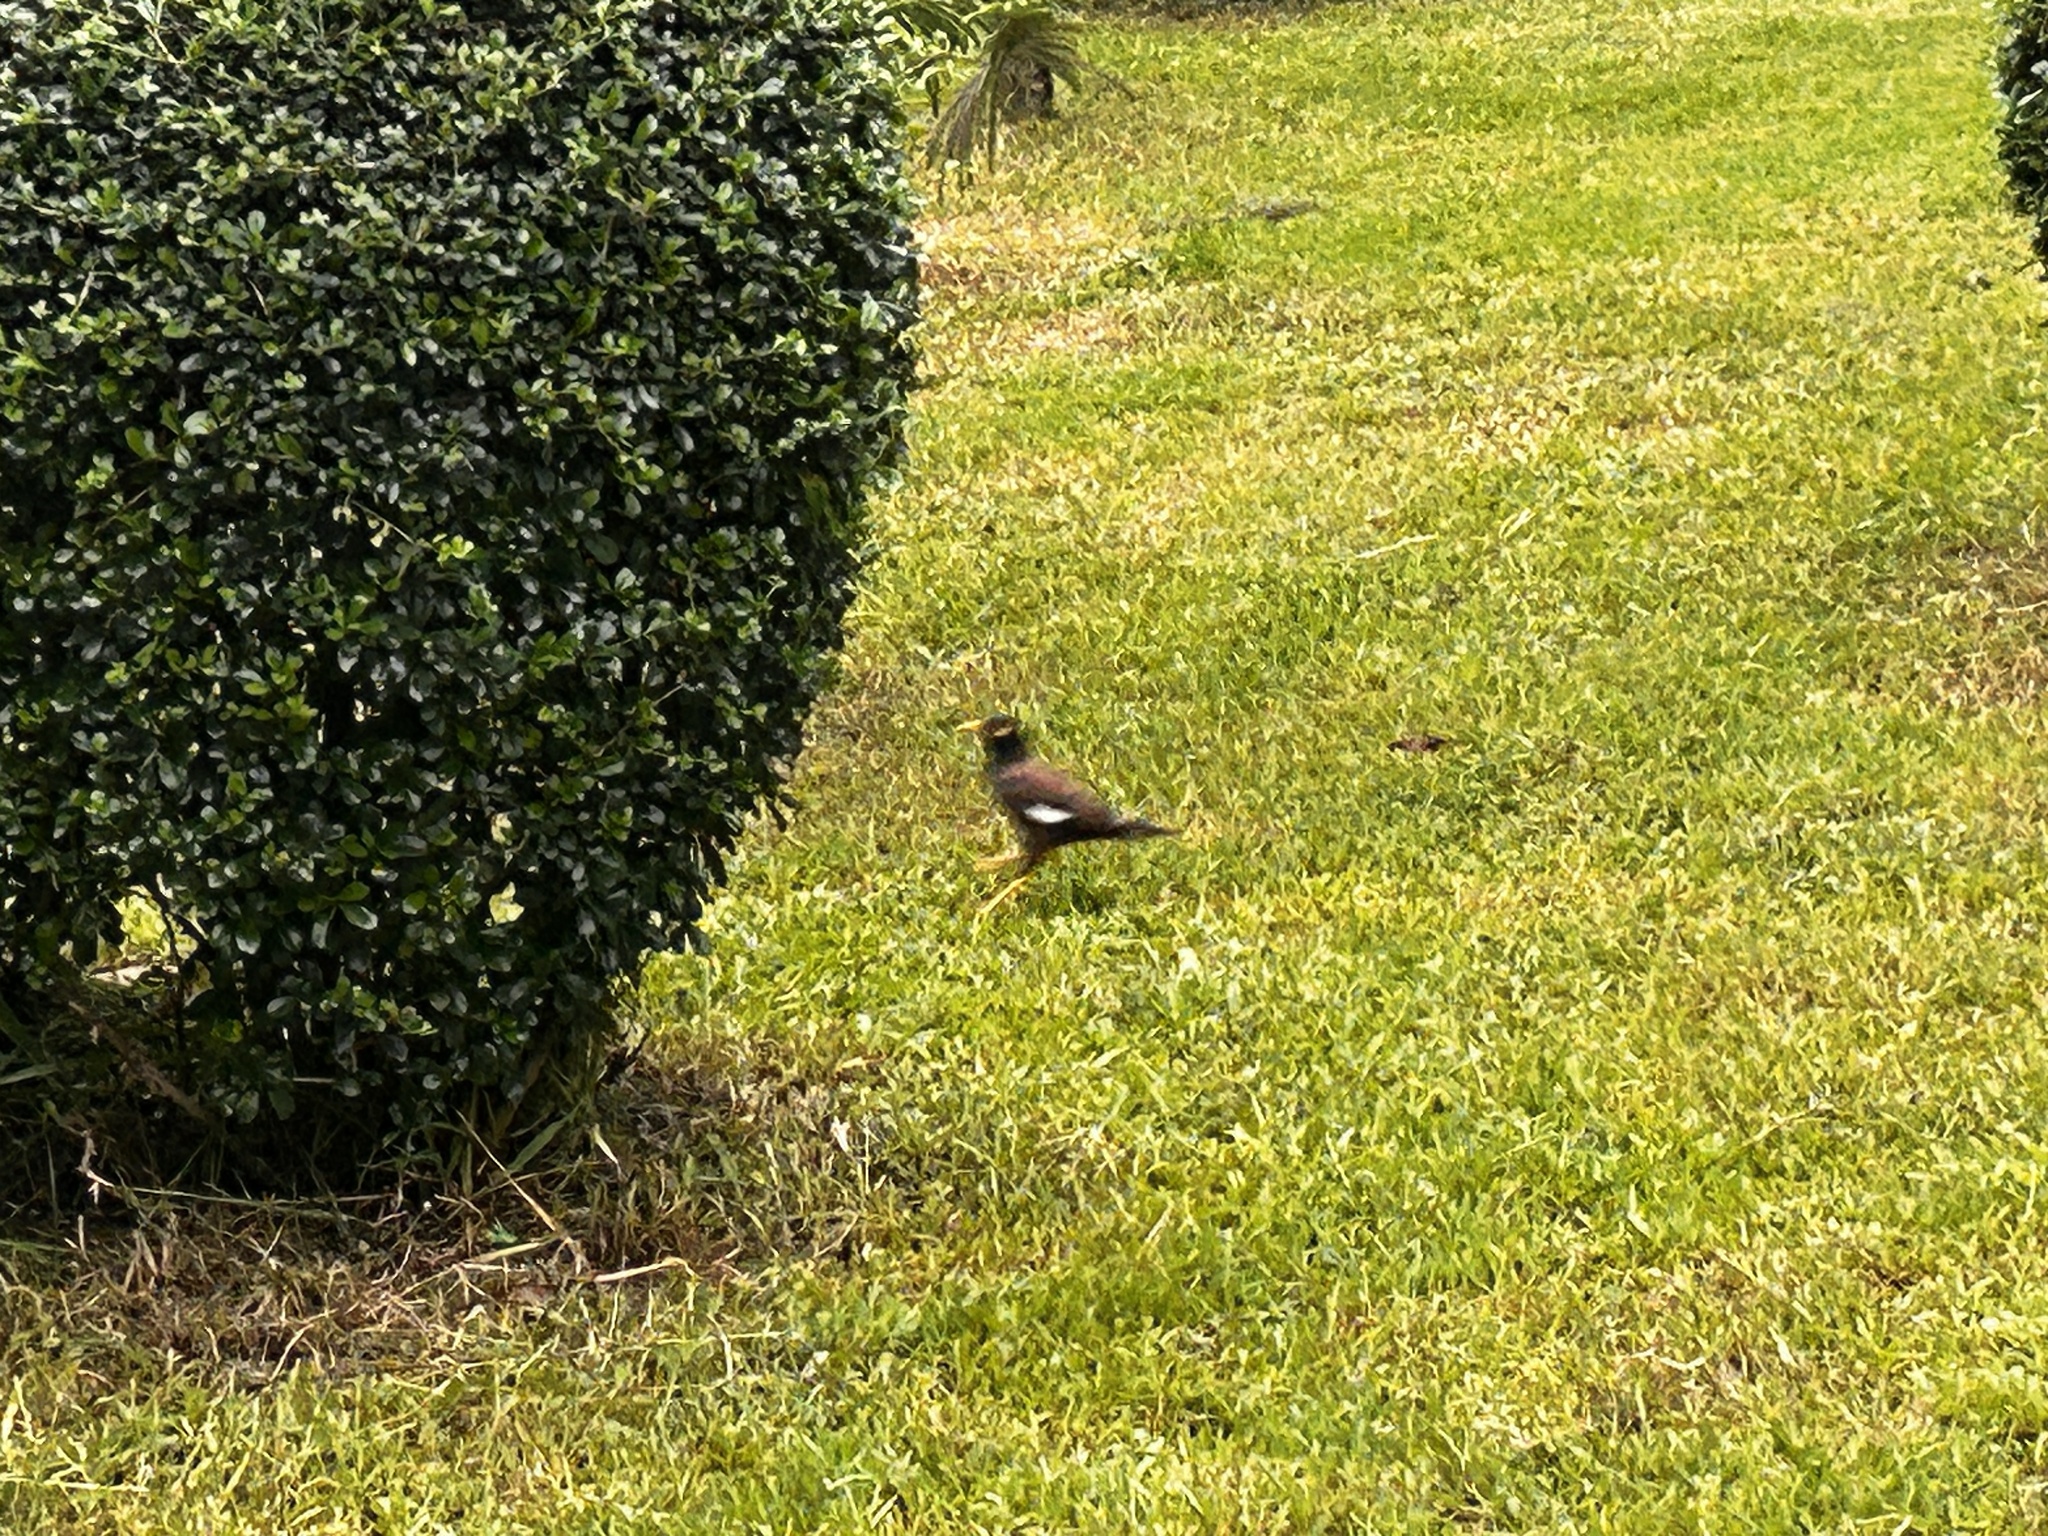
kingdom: Animalia
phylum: Chordata
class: Aves
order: Passeriformes
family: Sturnidae
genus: Acridotheres
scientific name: Acridotheres tristis
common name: Common myna
